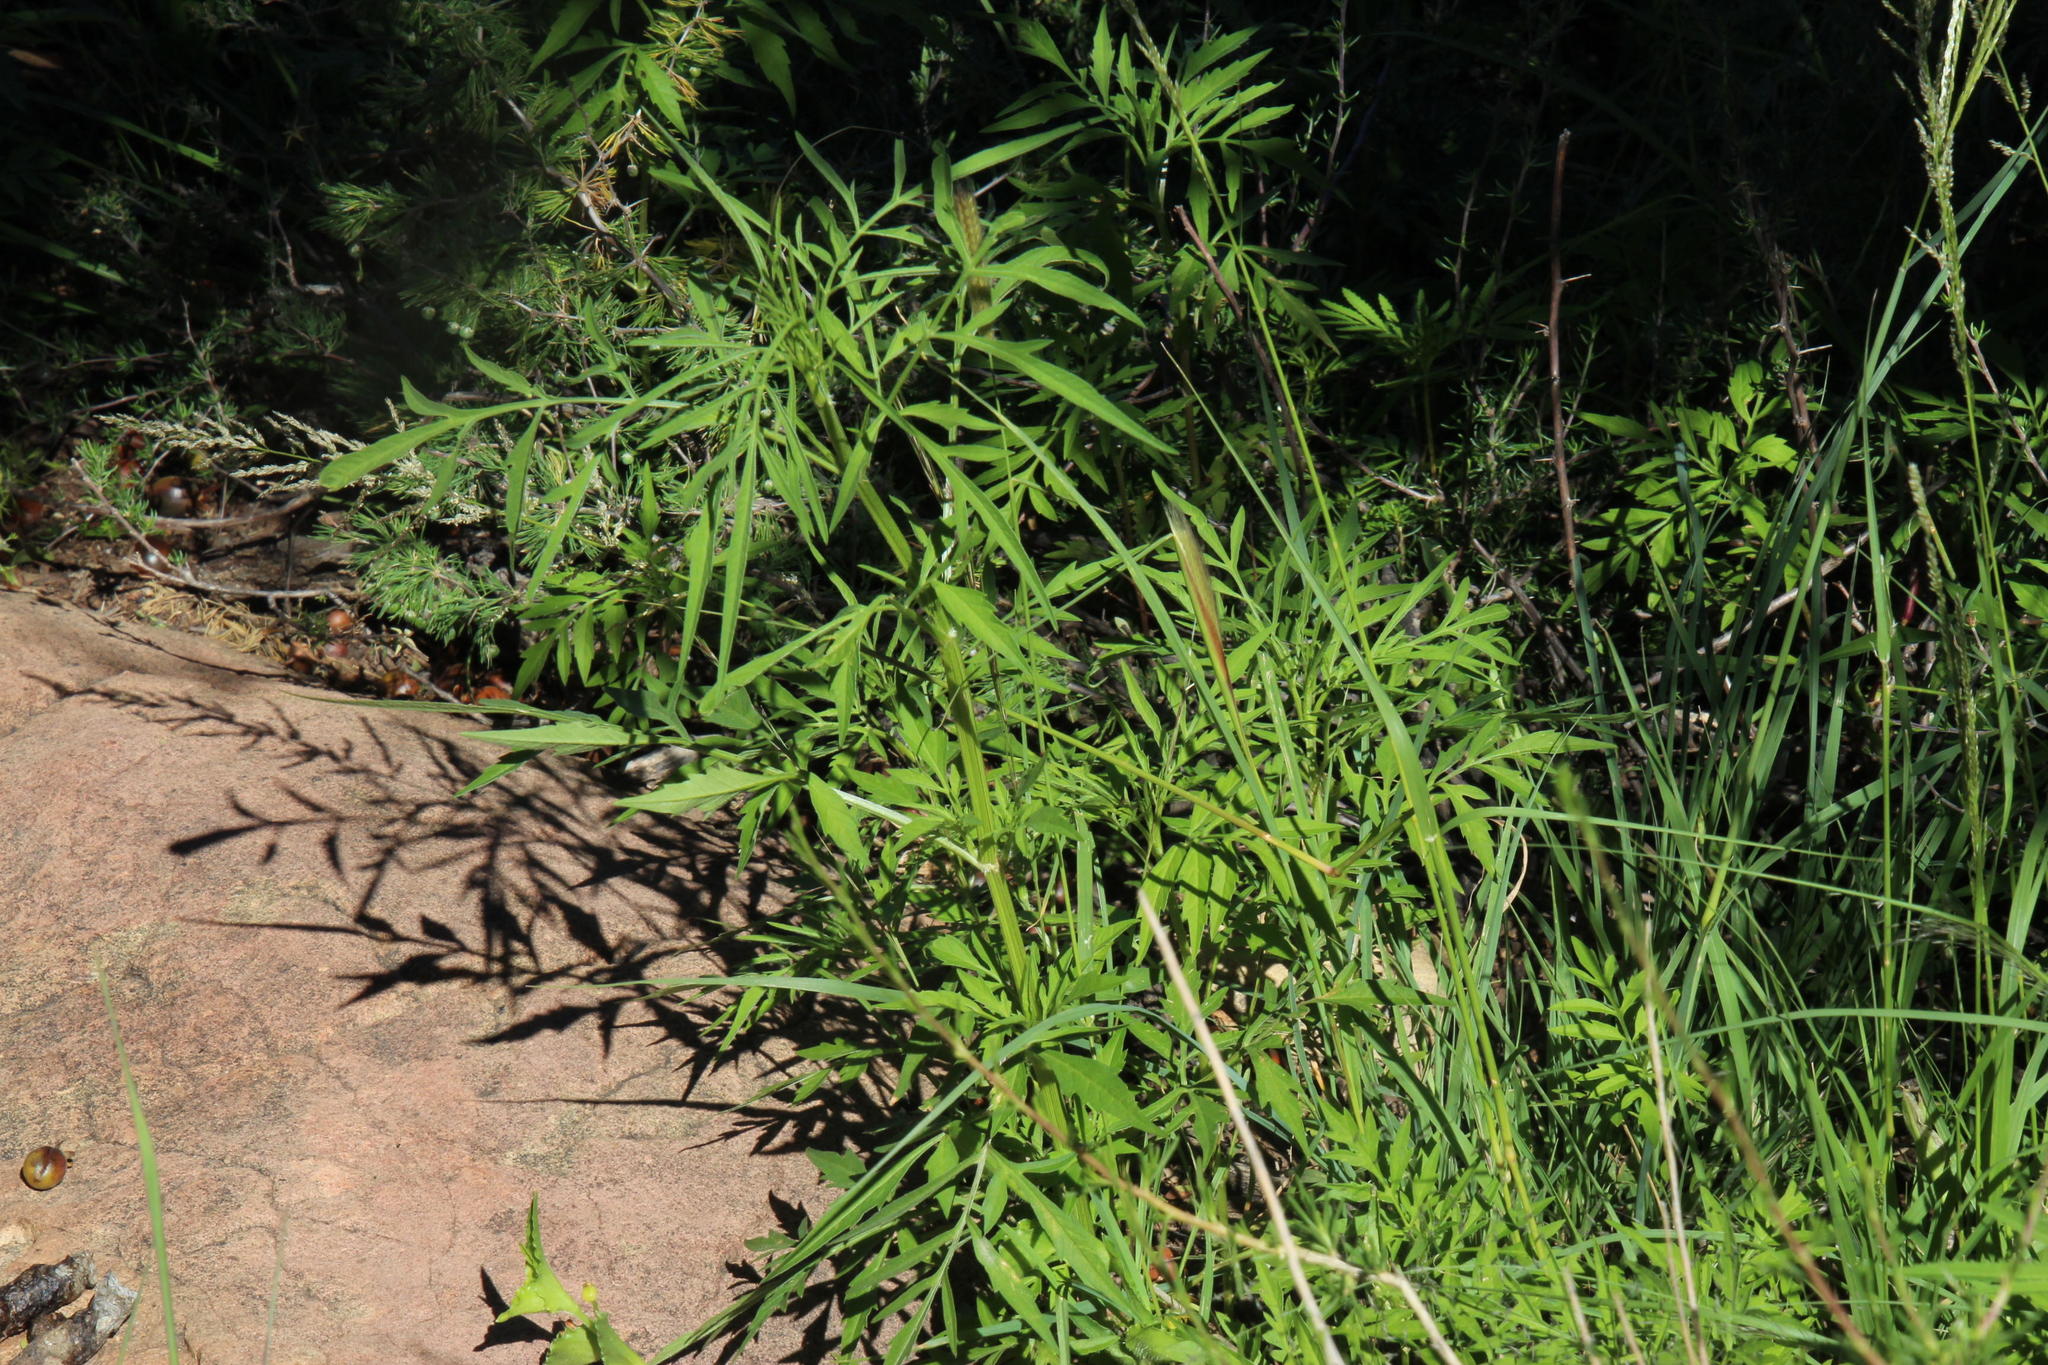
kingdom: Plantae
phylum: Tracheophyta
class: Magnoliopsida
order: Asterales
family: Asteraceae
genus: Tagetes
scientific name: Tagetes minuta
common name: Muster john henry
